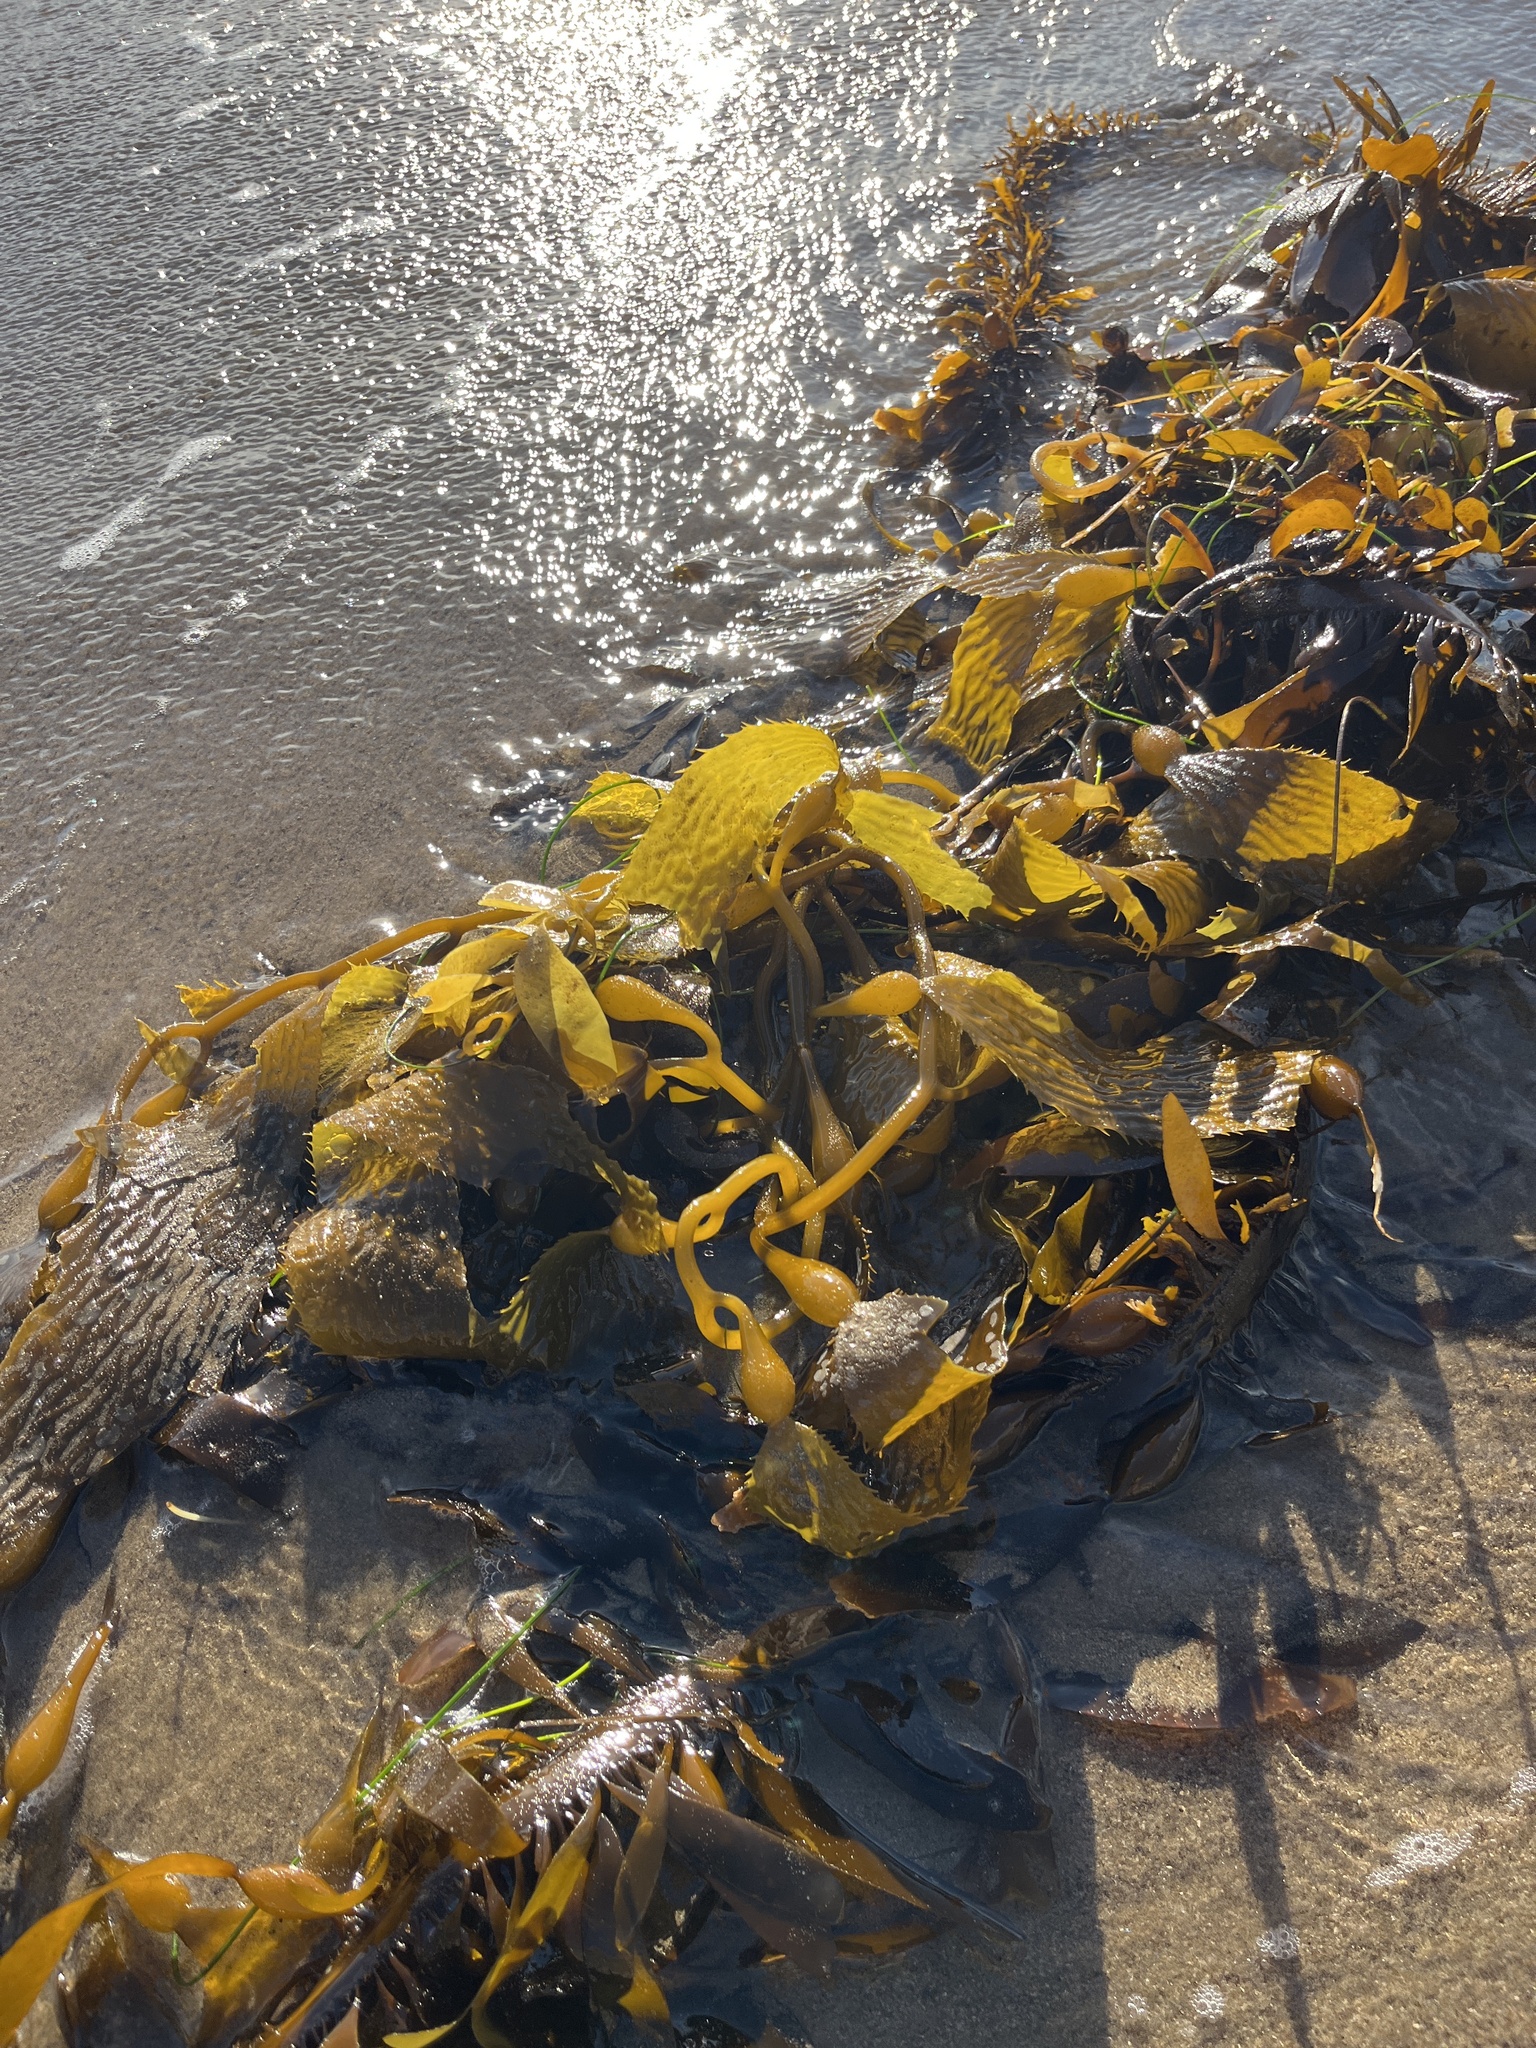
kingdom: Chromista
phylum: Ochrophyta
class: Phaeophyceae
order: Laminariales
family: Laminariaceae
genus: Macrocystis
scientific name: Macrocystis pyrifera
